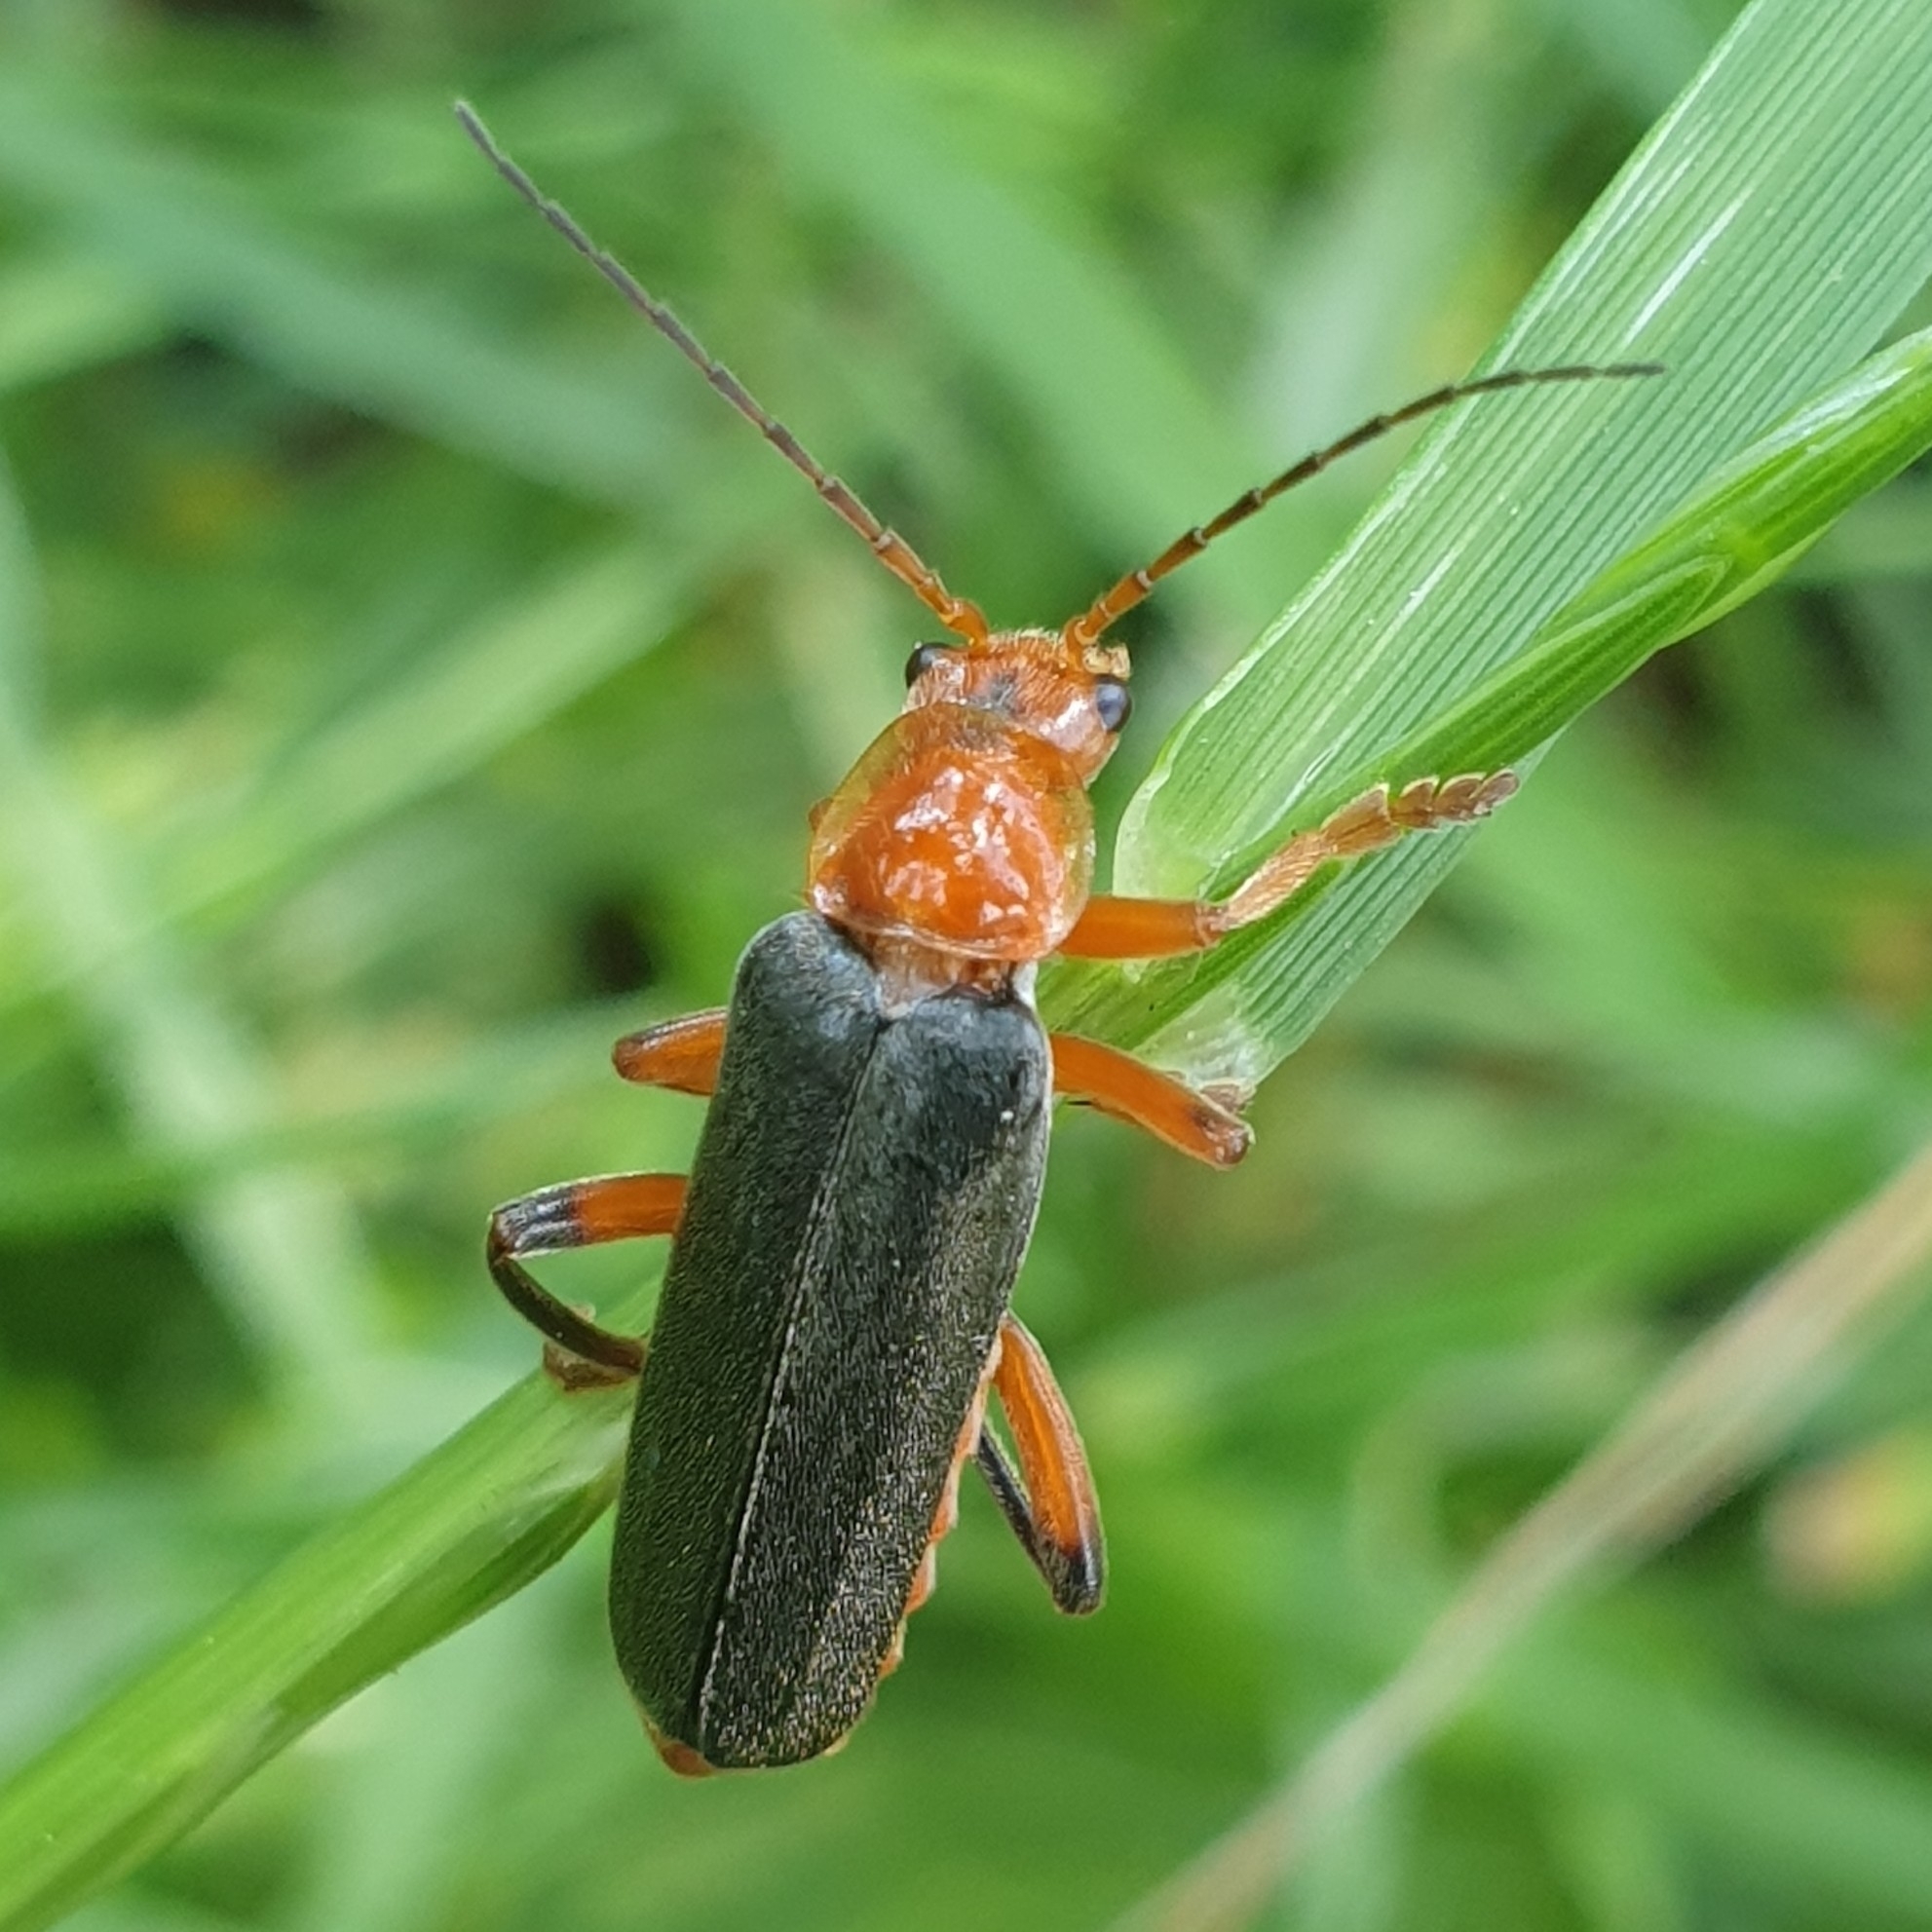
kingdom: Animalia
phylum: Arthropoda
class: Insecta
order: Coleoptera
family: Cantharidae
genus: Cantharis
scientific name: Cantharis livida
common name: Livid soldier beetle
